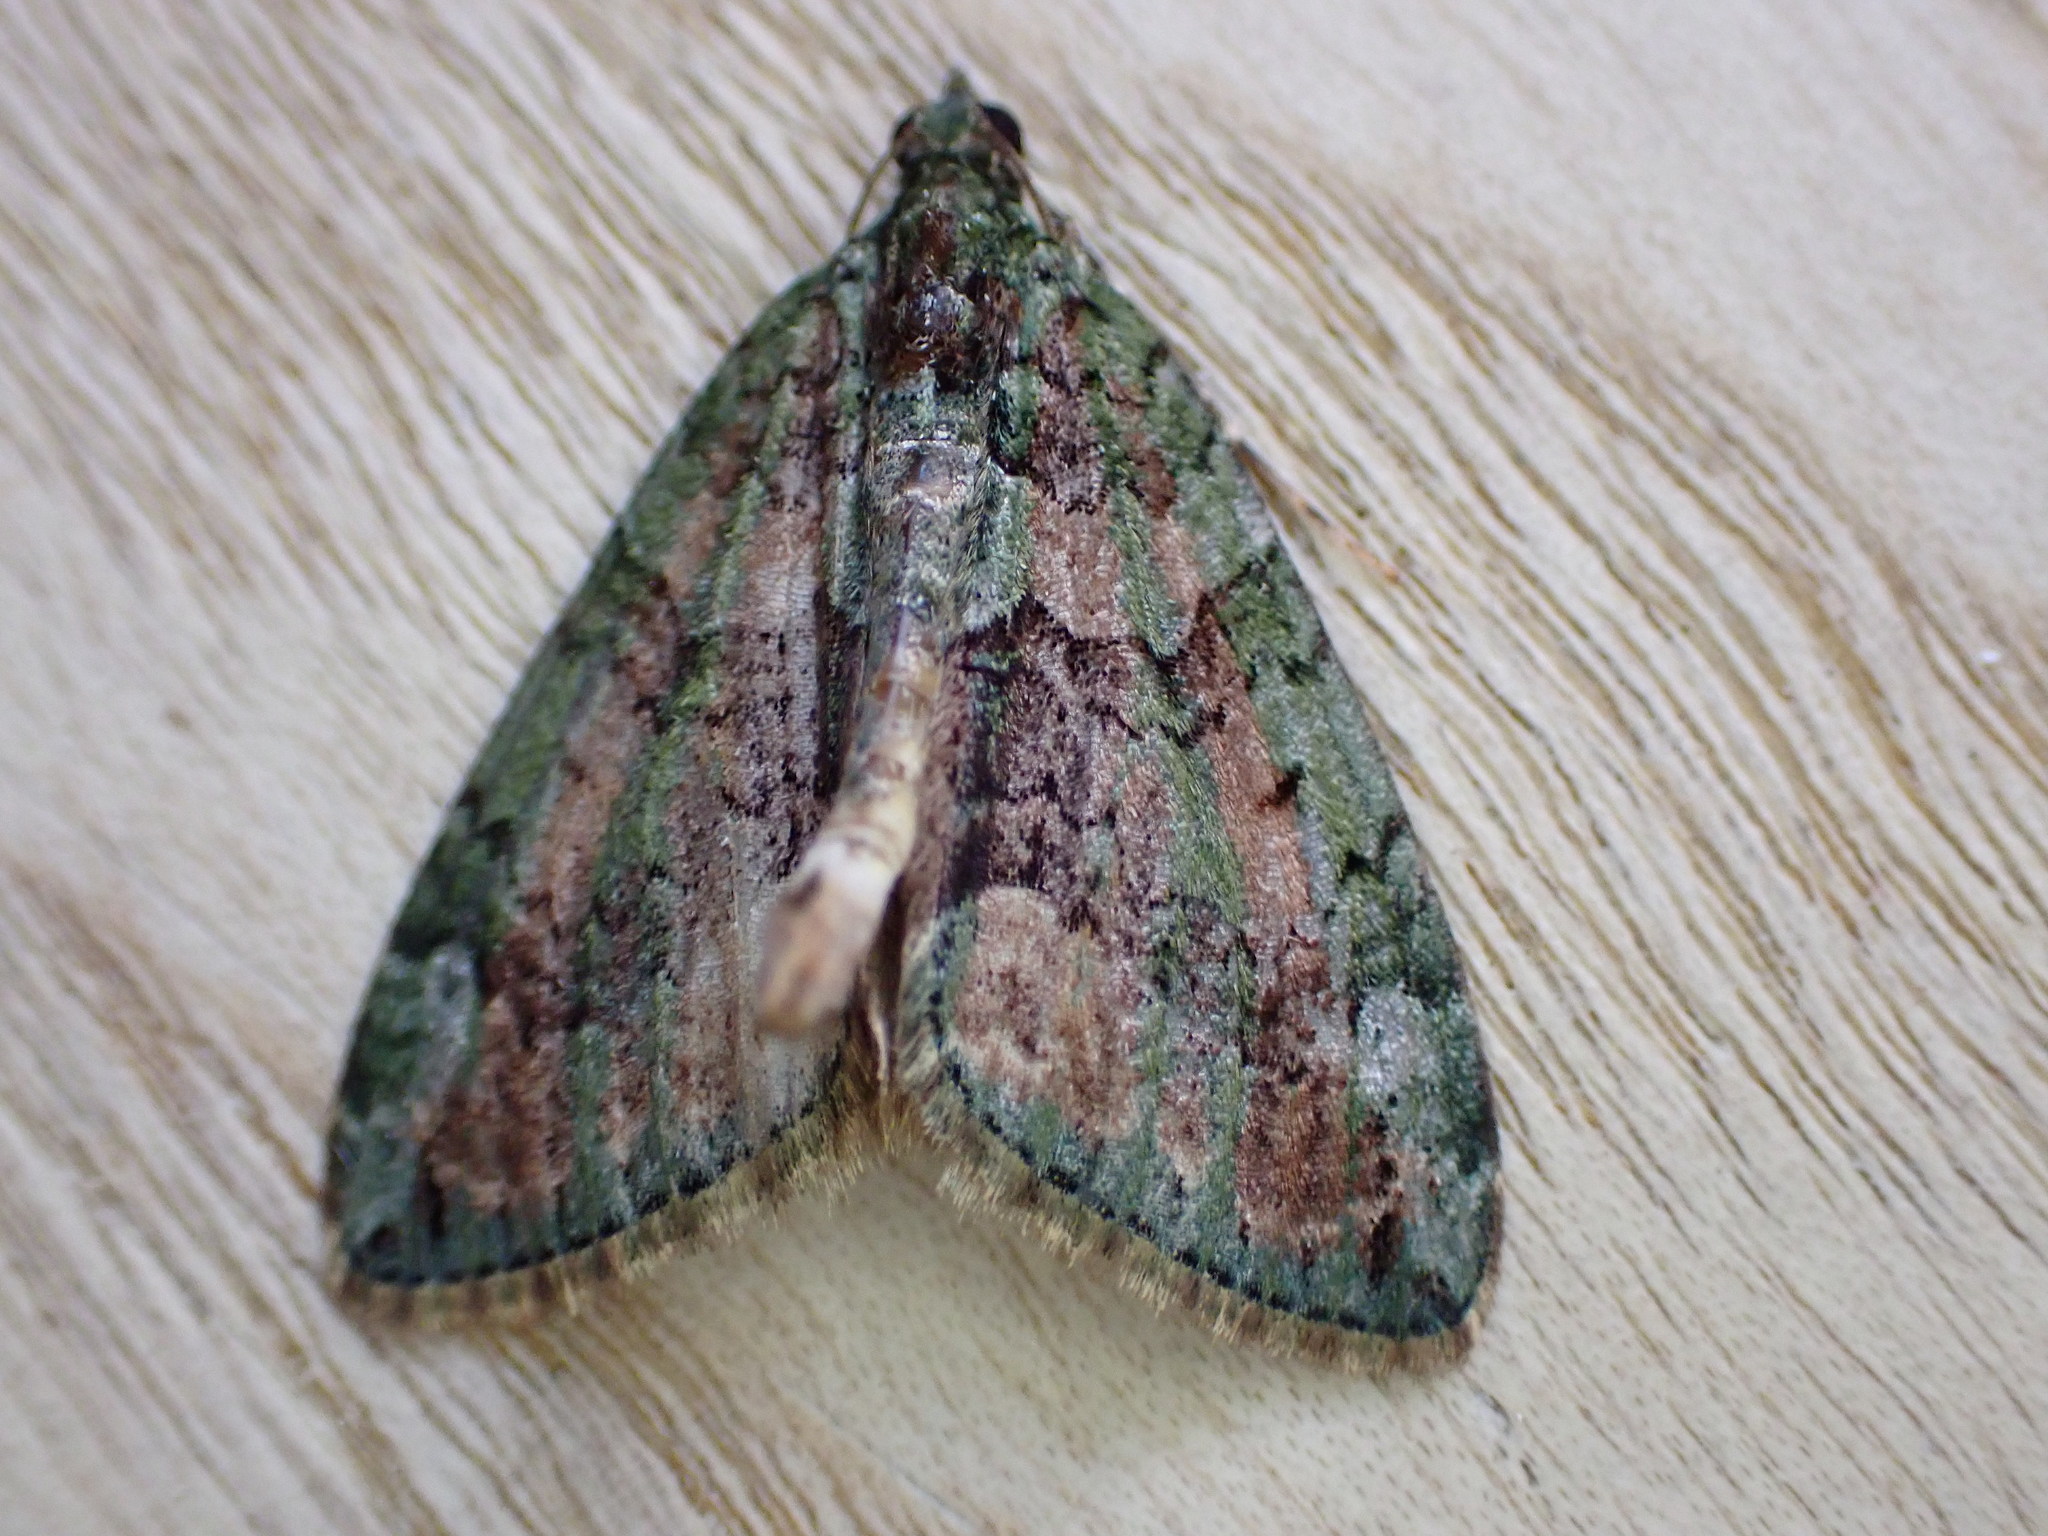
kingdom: Animalia
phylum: Arthropoda
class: Insecta
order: Lepidoptera
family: Geometridae
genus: Chloroclysta
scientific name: Chloroclysta siterata
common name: Red-green carpet
